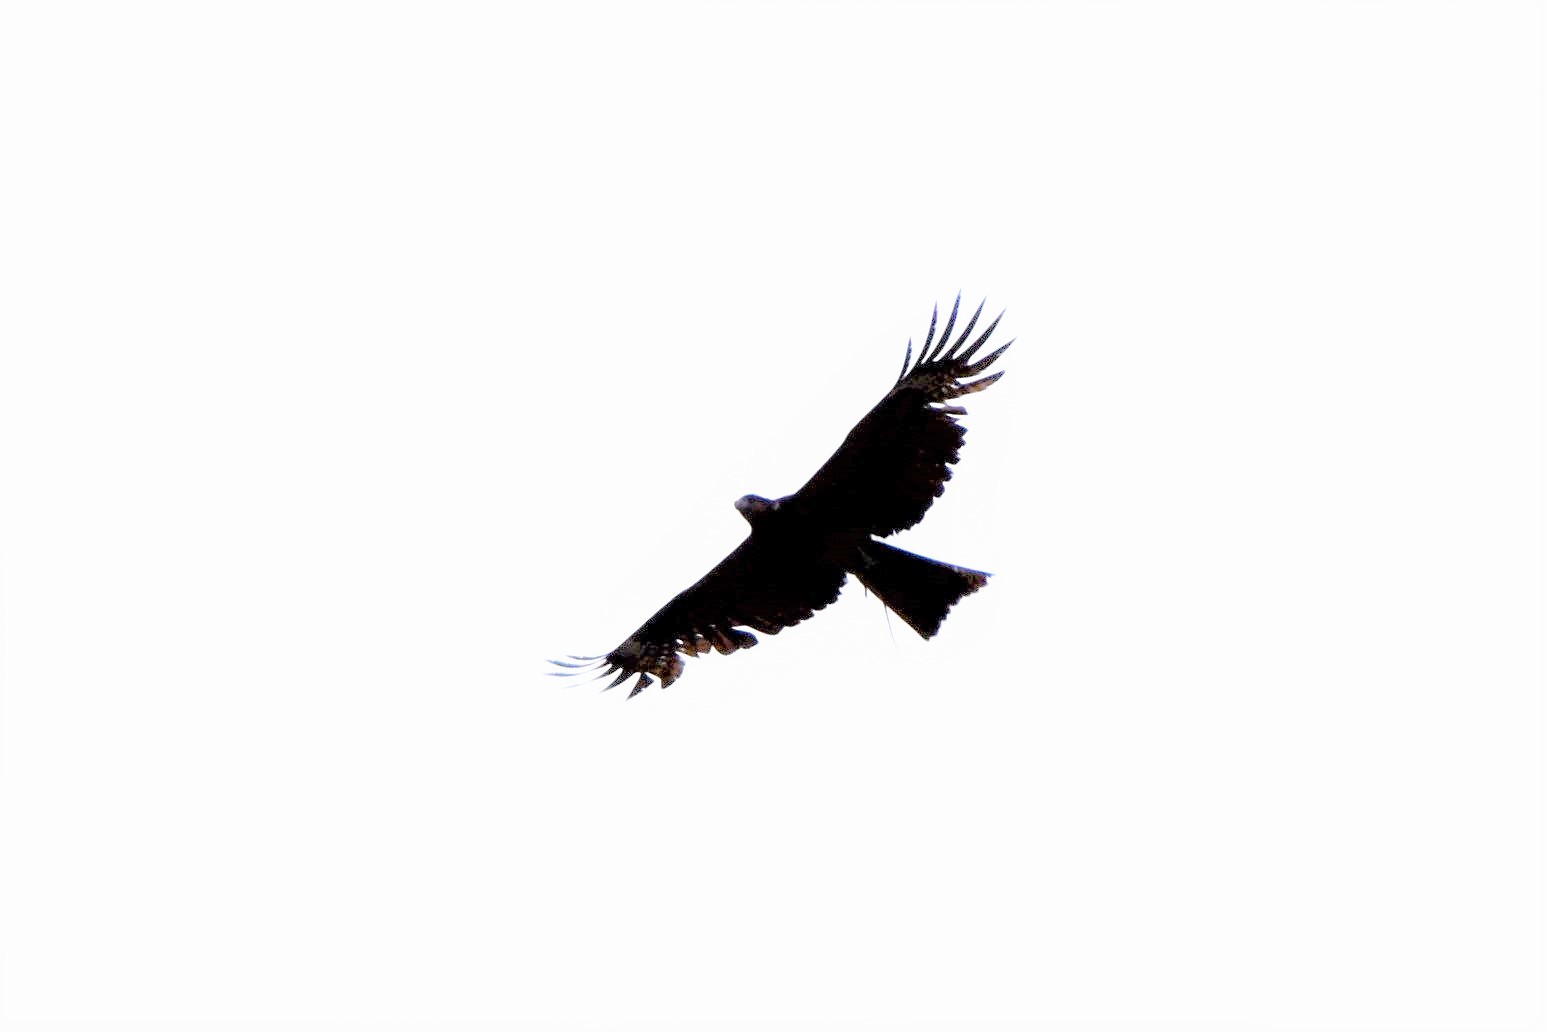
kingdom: Animalia
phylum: Chordata
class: Aves
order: Accipitriformes
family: Accipitridae
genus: Milvus
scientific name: Milvus migrans
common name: Black kite
